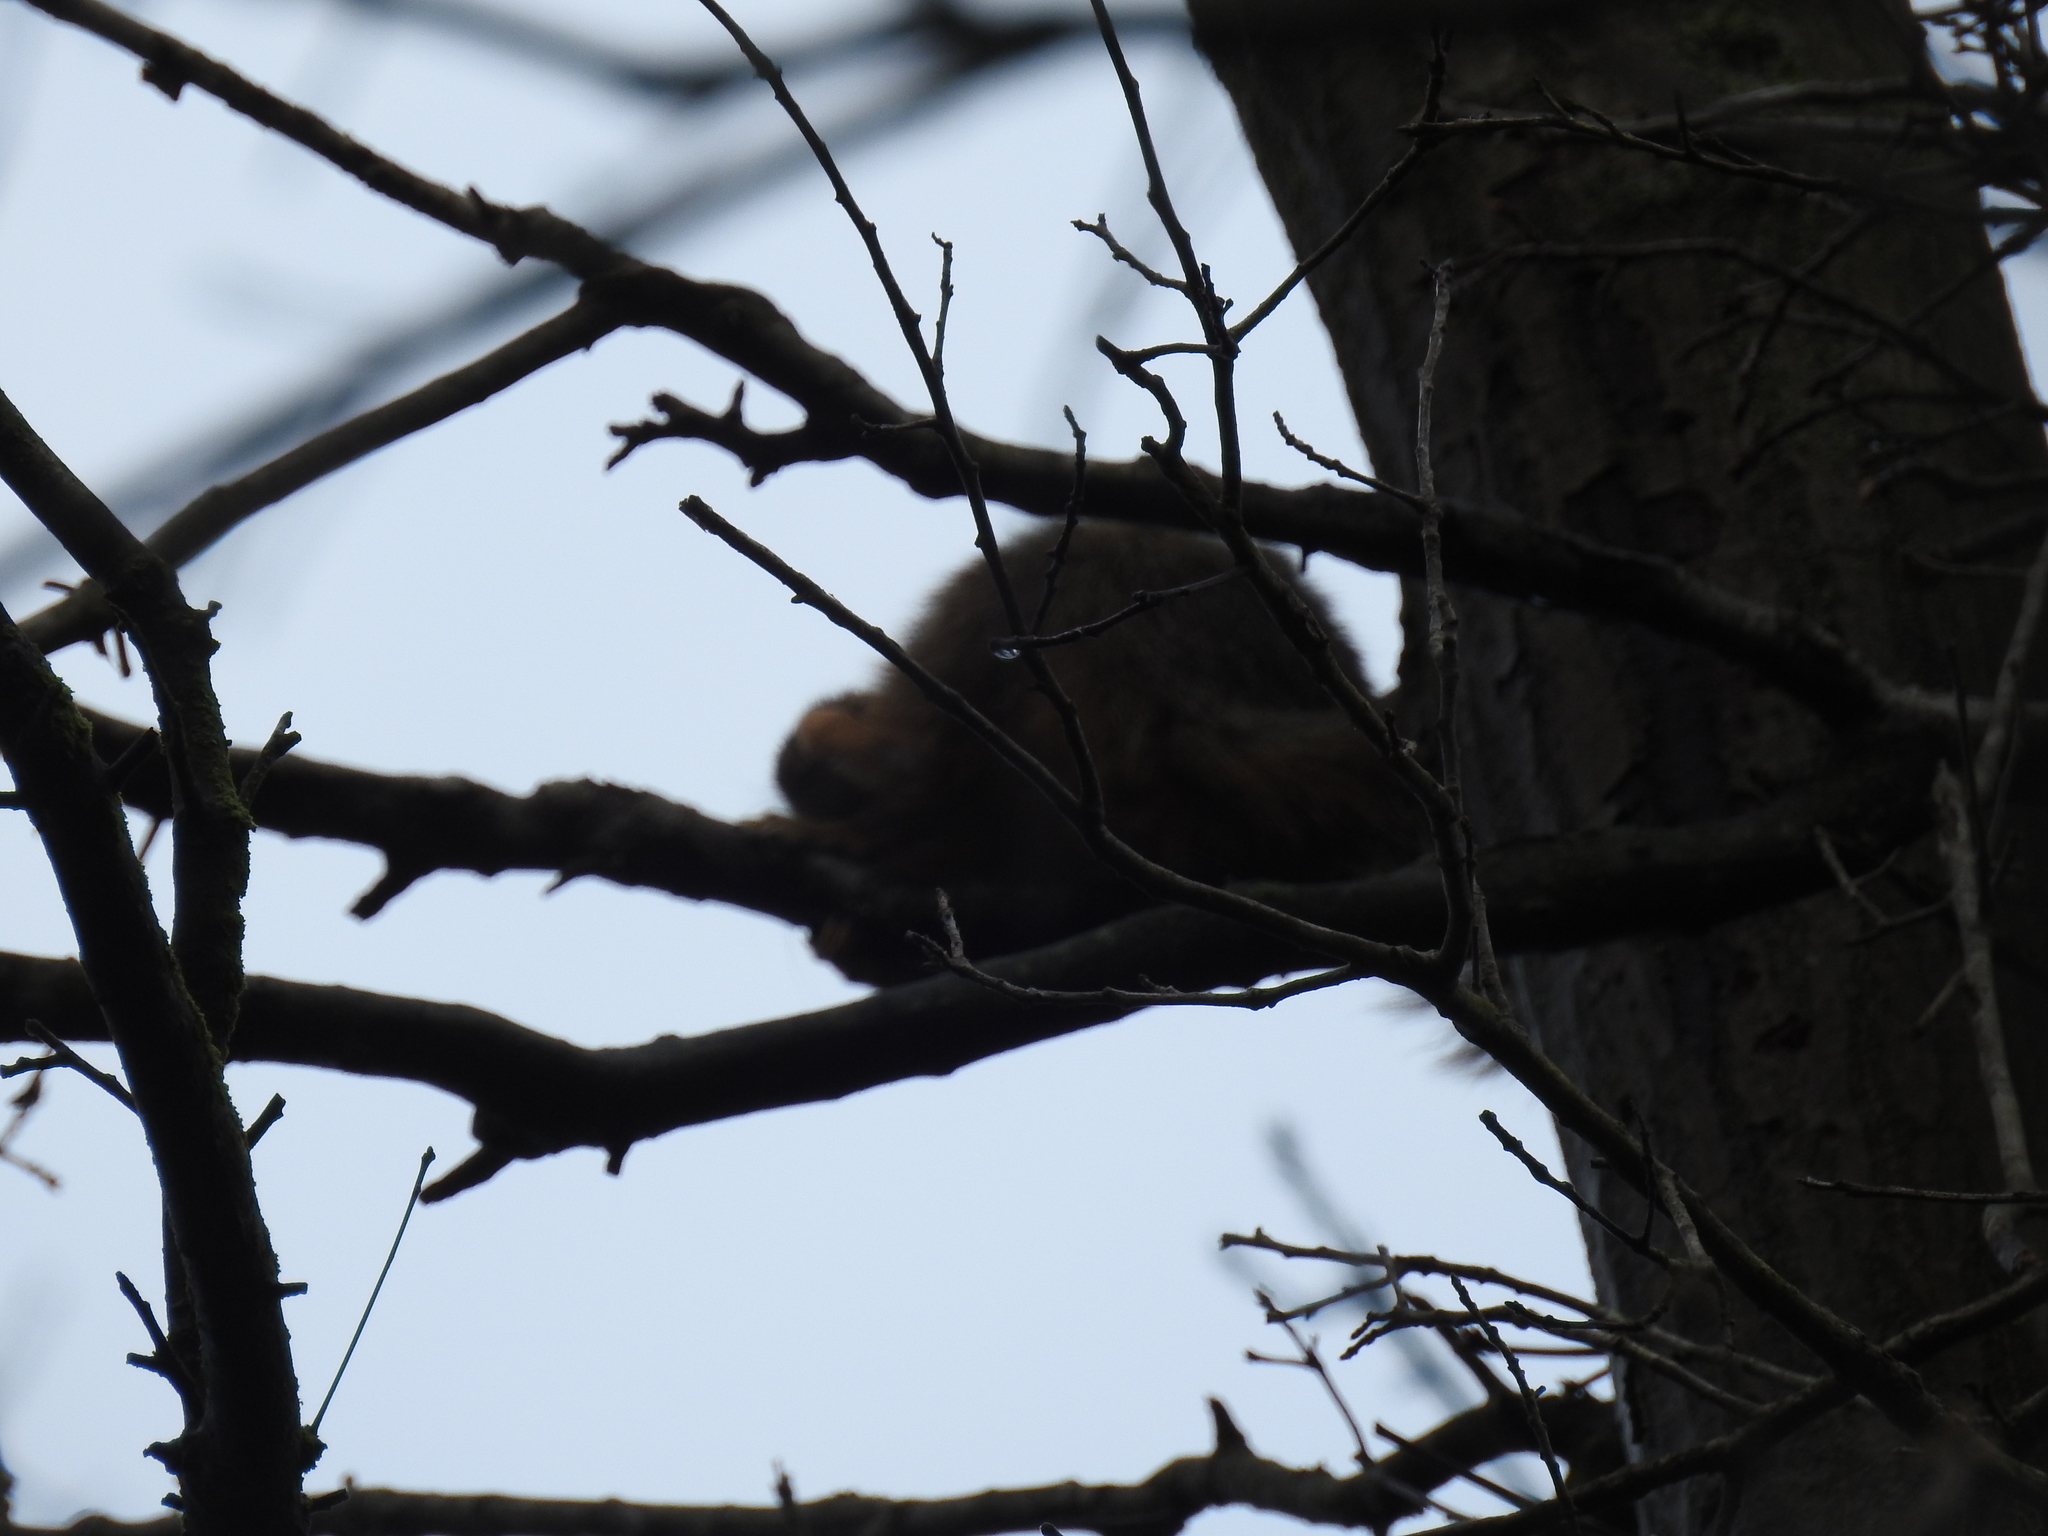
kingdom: Animalia
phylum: Chordata
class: Mammalia
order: Rodentia
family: Sciuridae
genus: Sciurus
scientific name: Sciurus niger
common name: Fox squirrel
